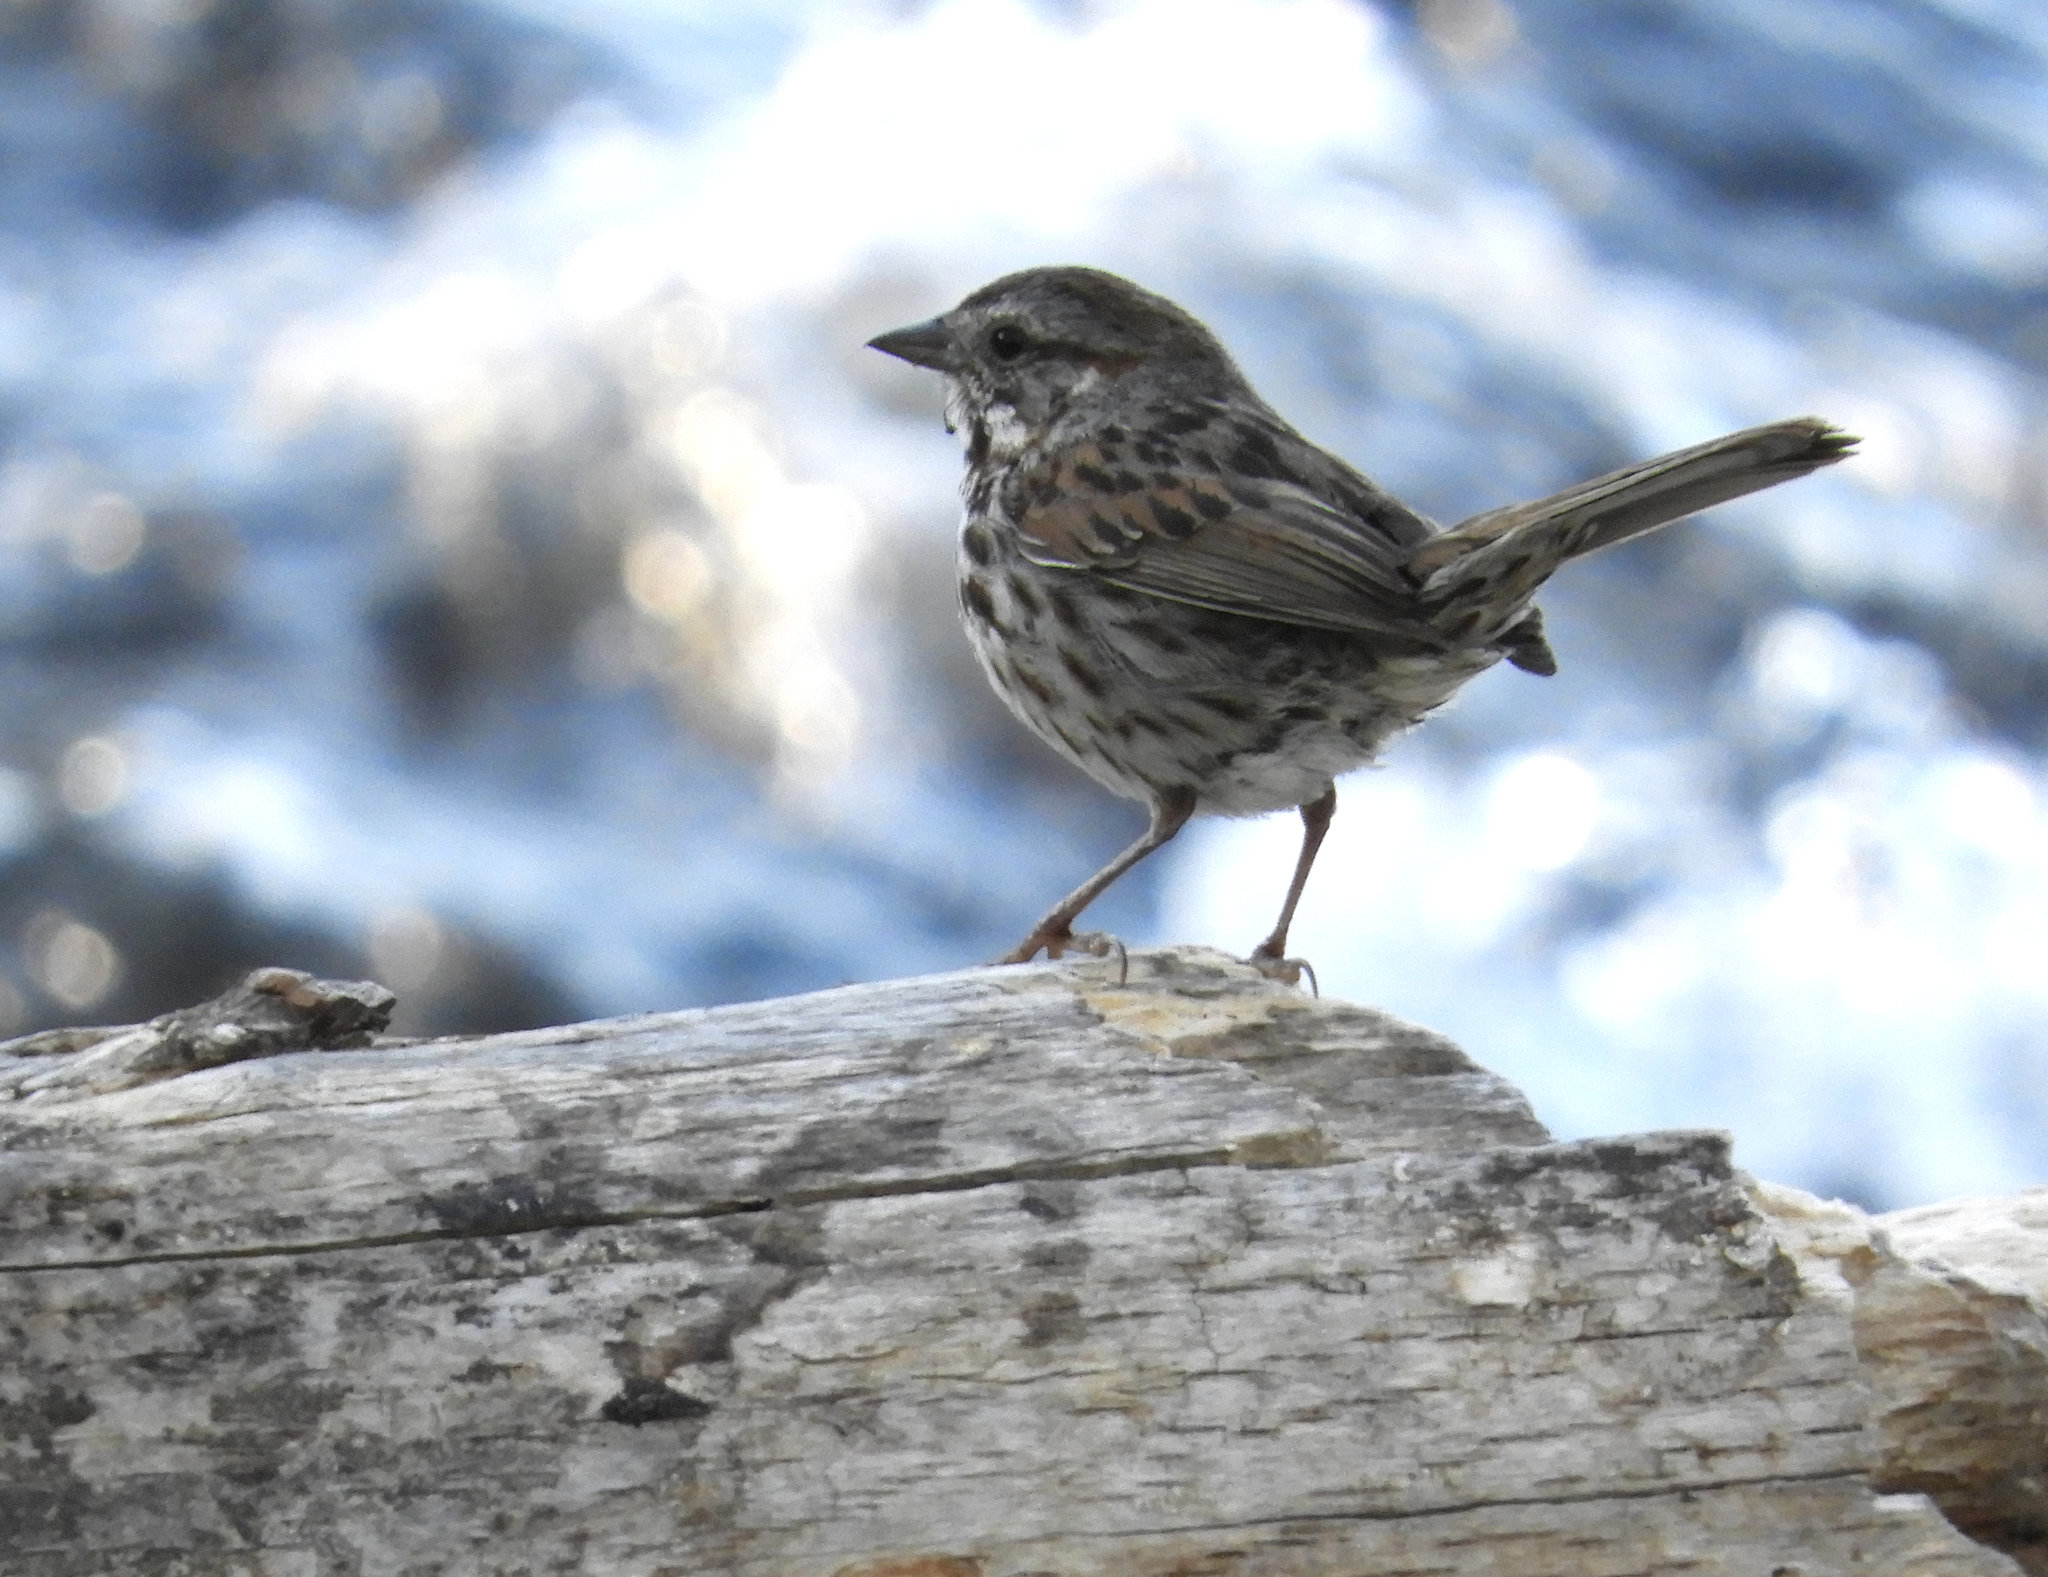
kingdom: Animalia
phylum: Chordata
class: Aves
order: Passeriformes
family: Passerellidae
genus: Melospiza
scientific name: Melospiza melodia
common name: Song sparrow
